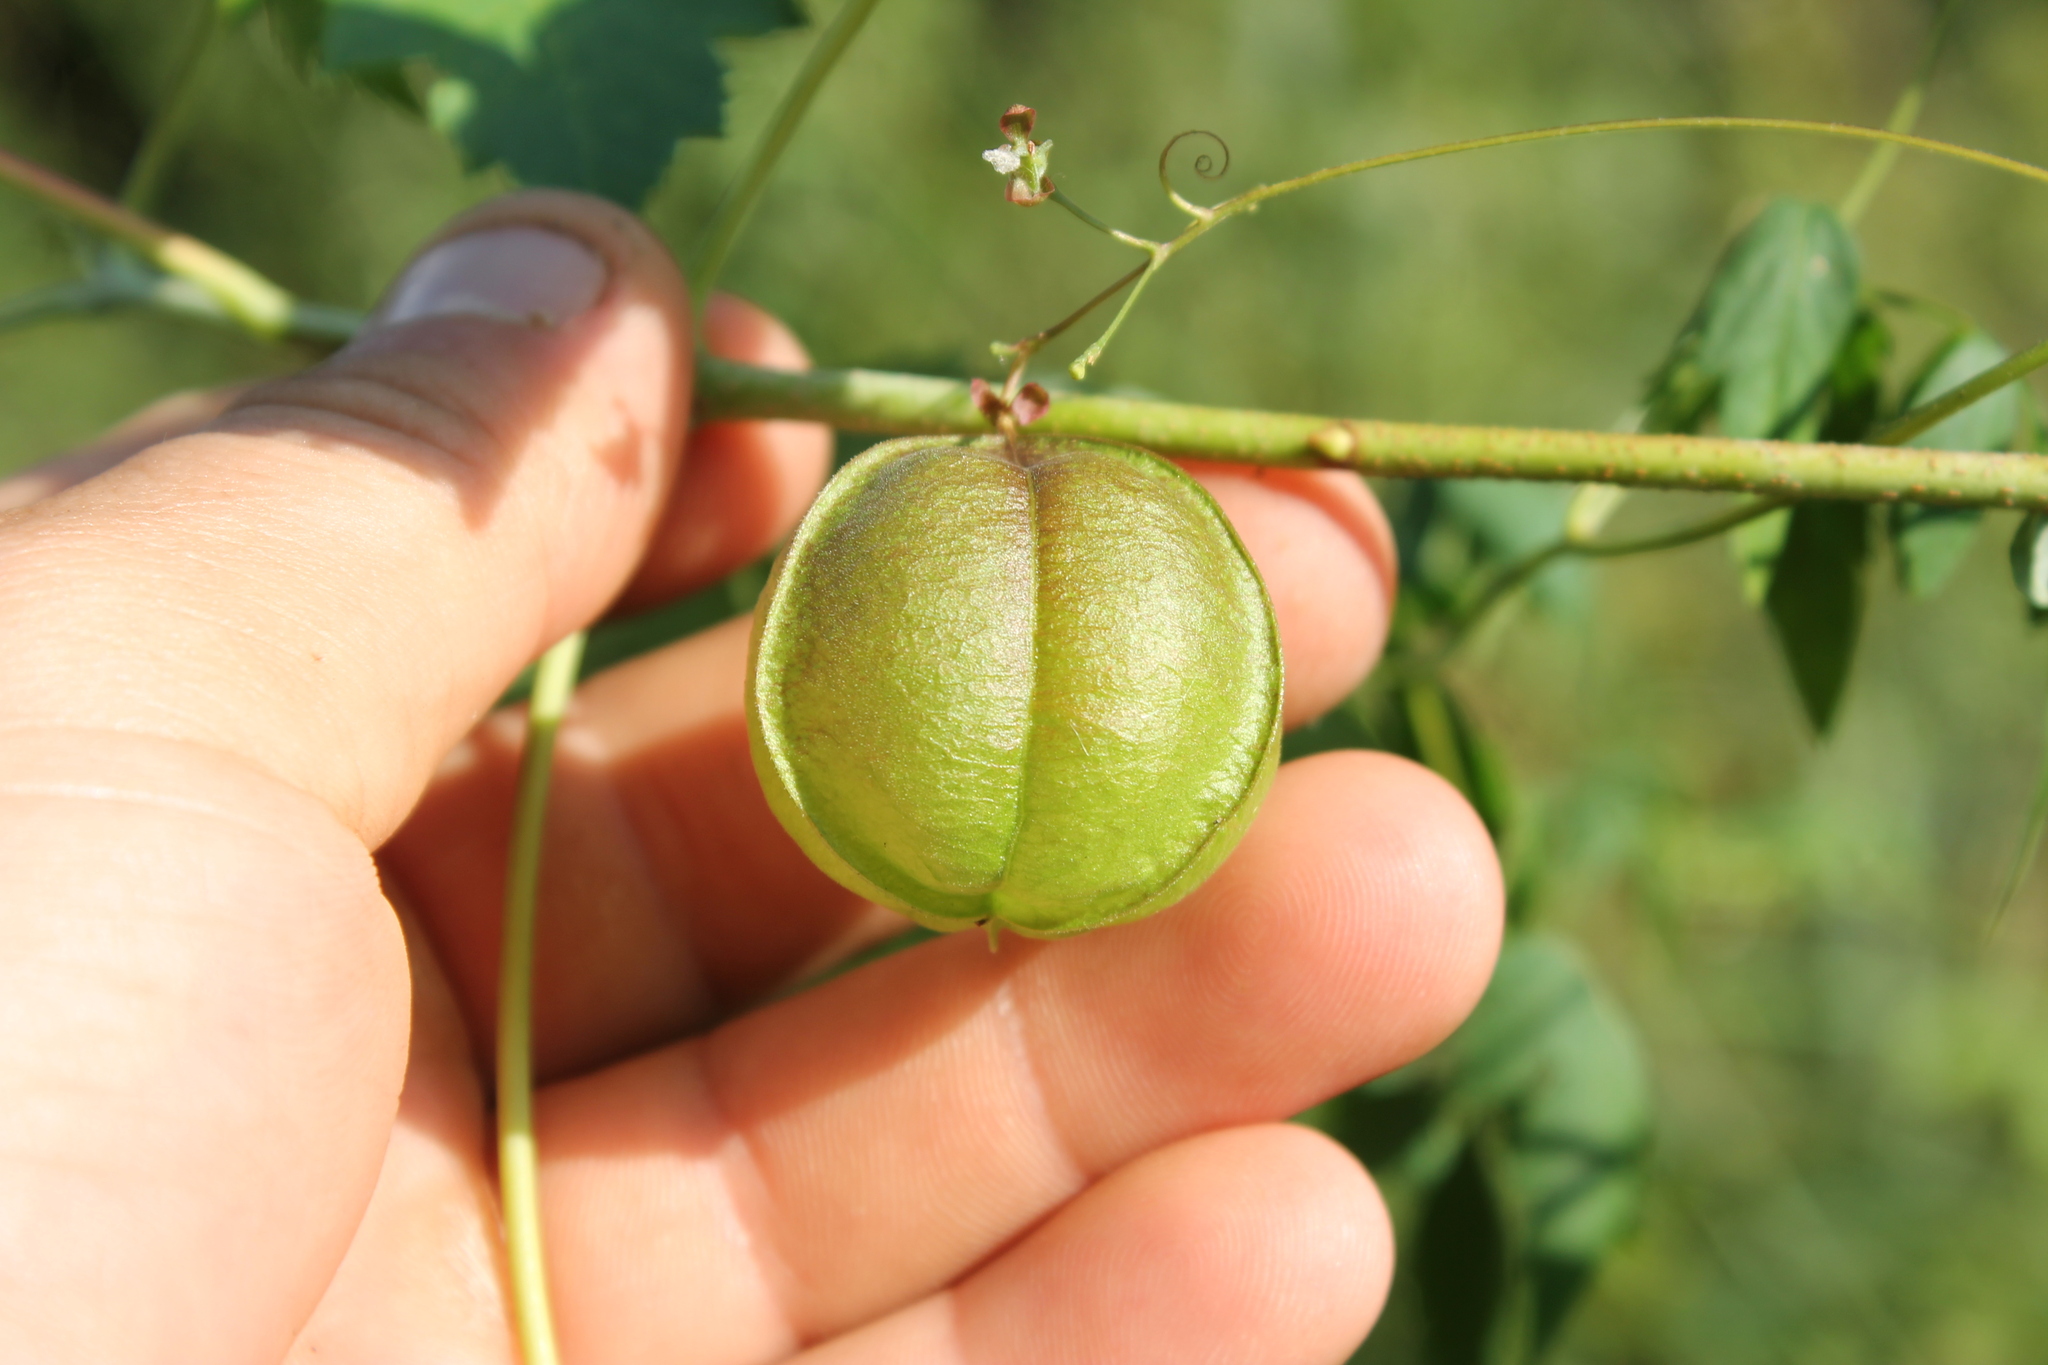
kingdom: Plantae
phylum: Tracheophyta
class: Magnoliopsida
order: Sapindales
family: Sapindaceae
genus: Cardiospermum
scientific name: Cardiospermum halicacabum
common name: Balloon vine
